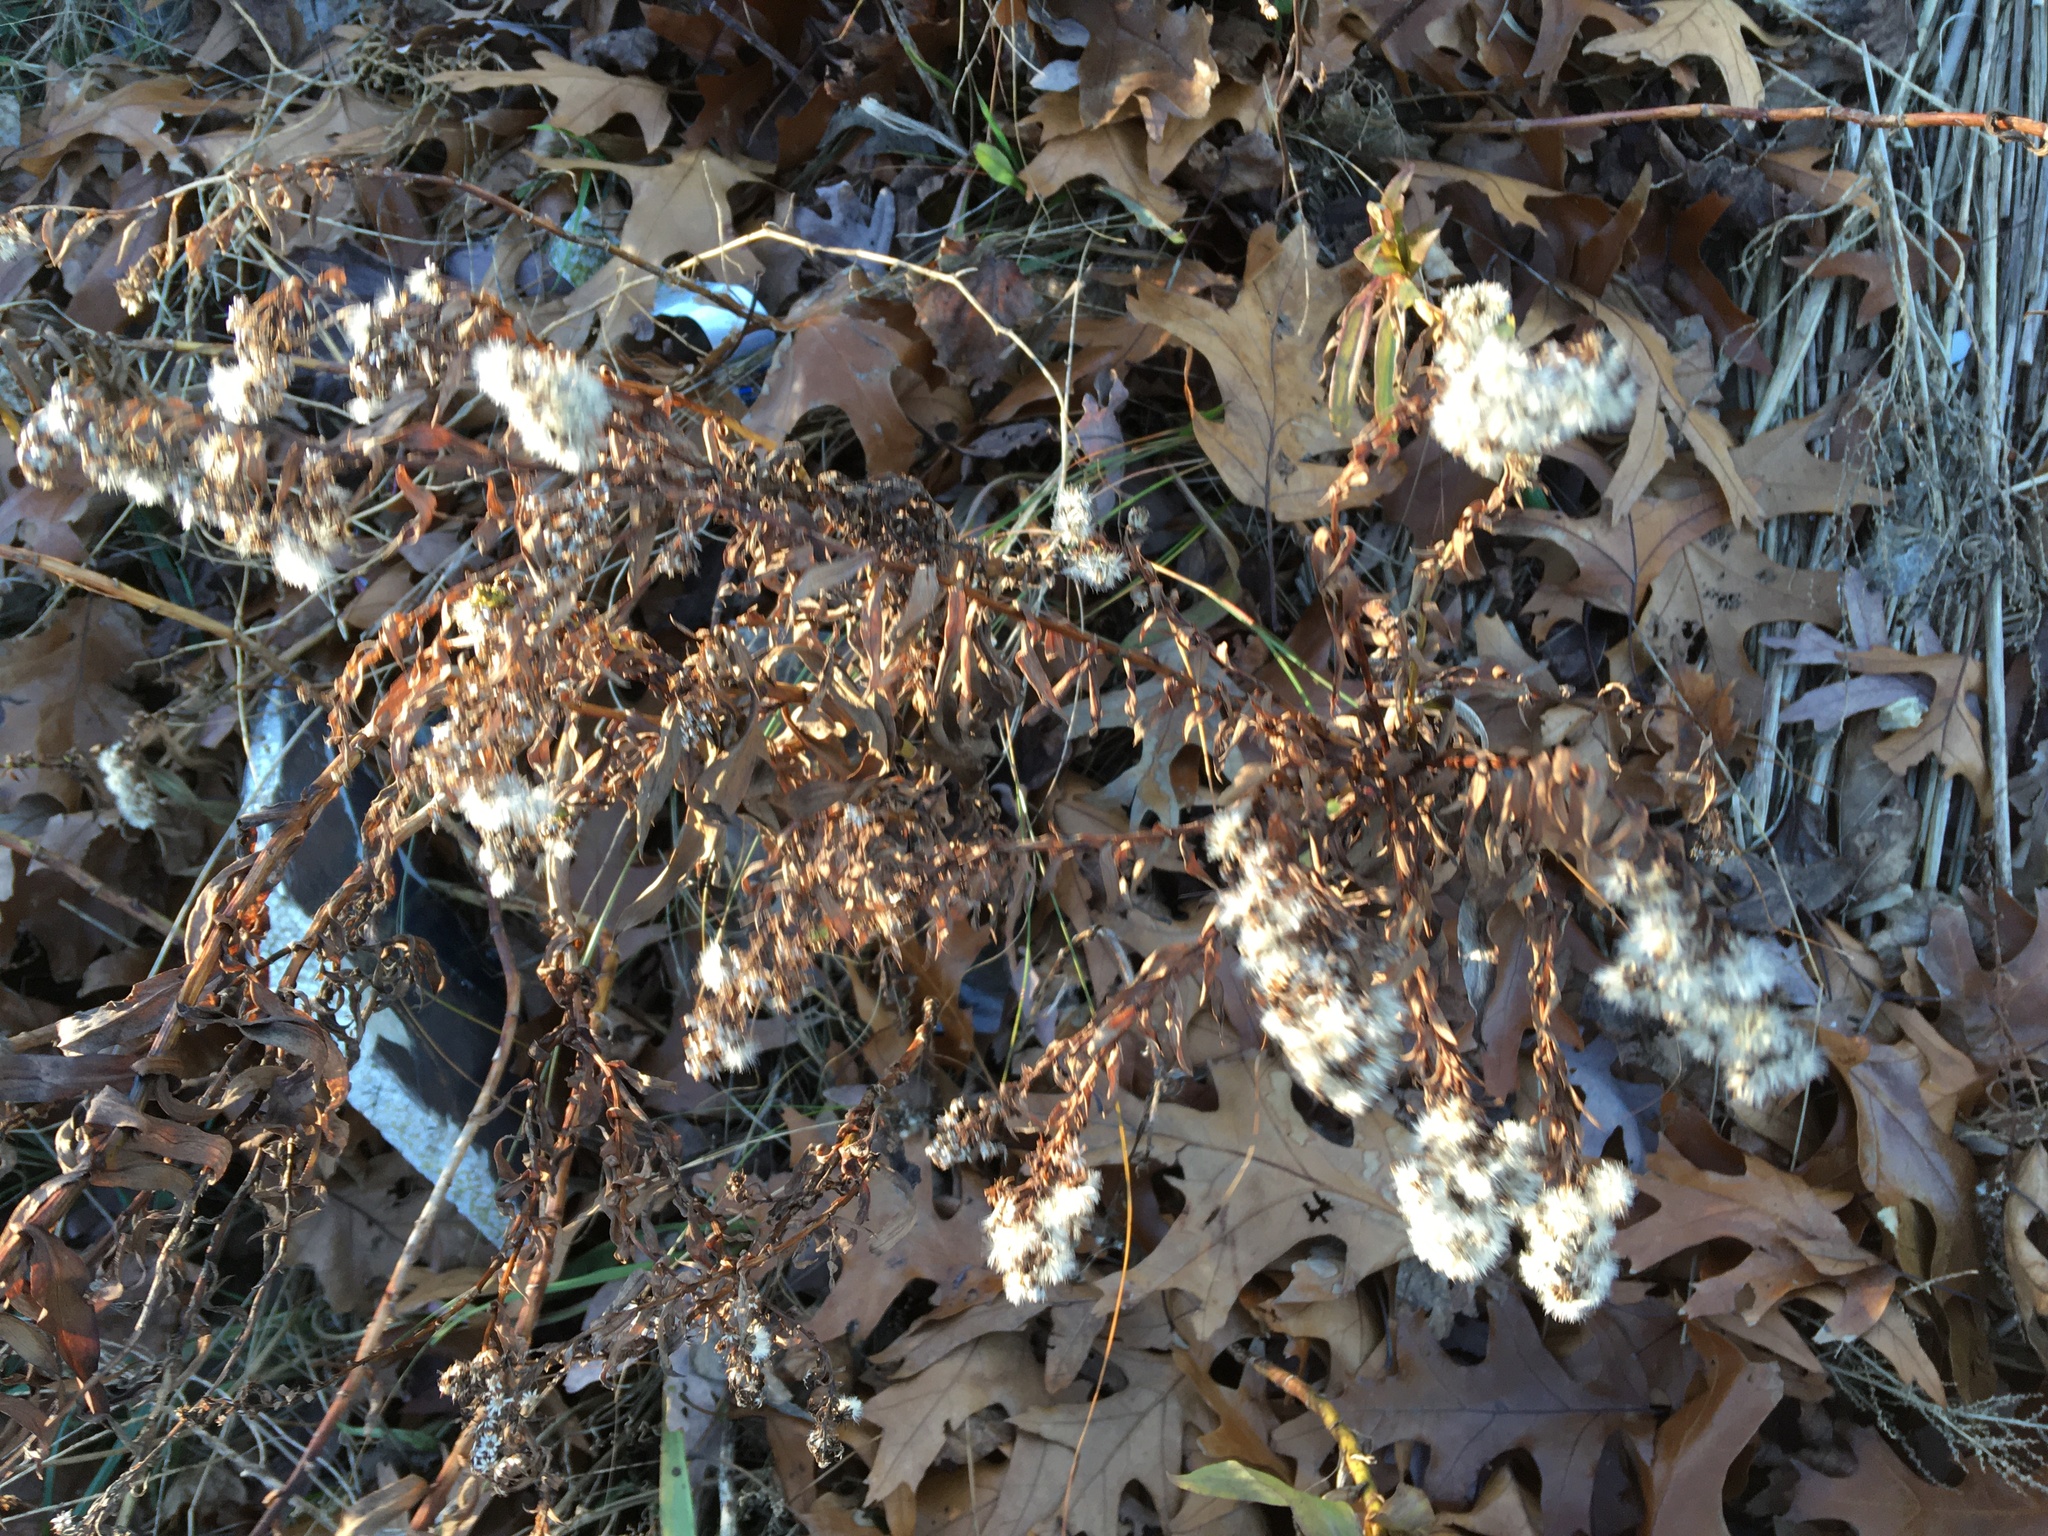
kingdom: Plantae
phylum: Tracheophyta
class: Magnoliopsida
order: Asterales
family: Asteraceae
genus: Solidago
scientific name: Solidago sempervirens
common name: Salt-marsh goldenrod
